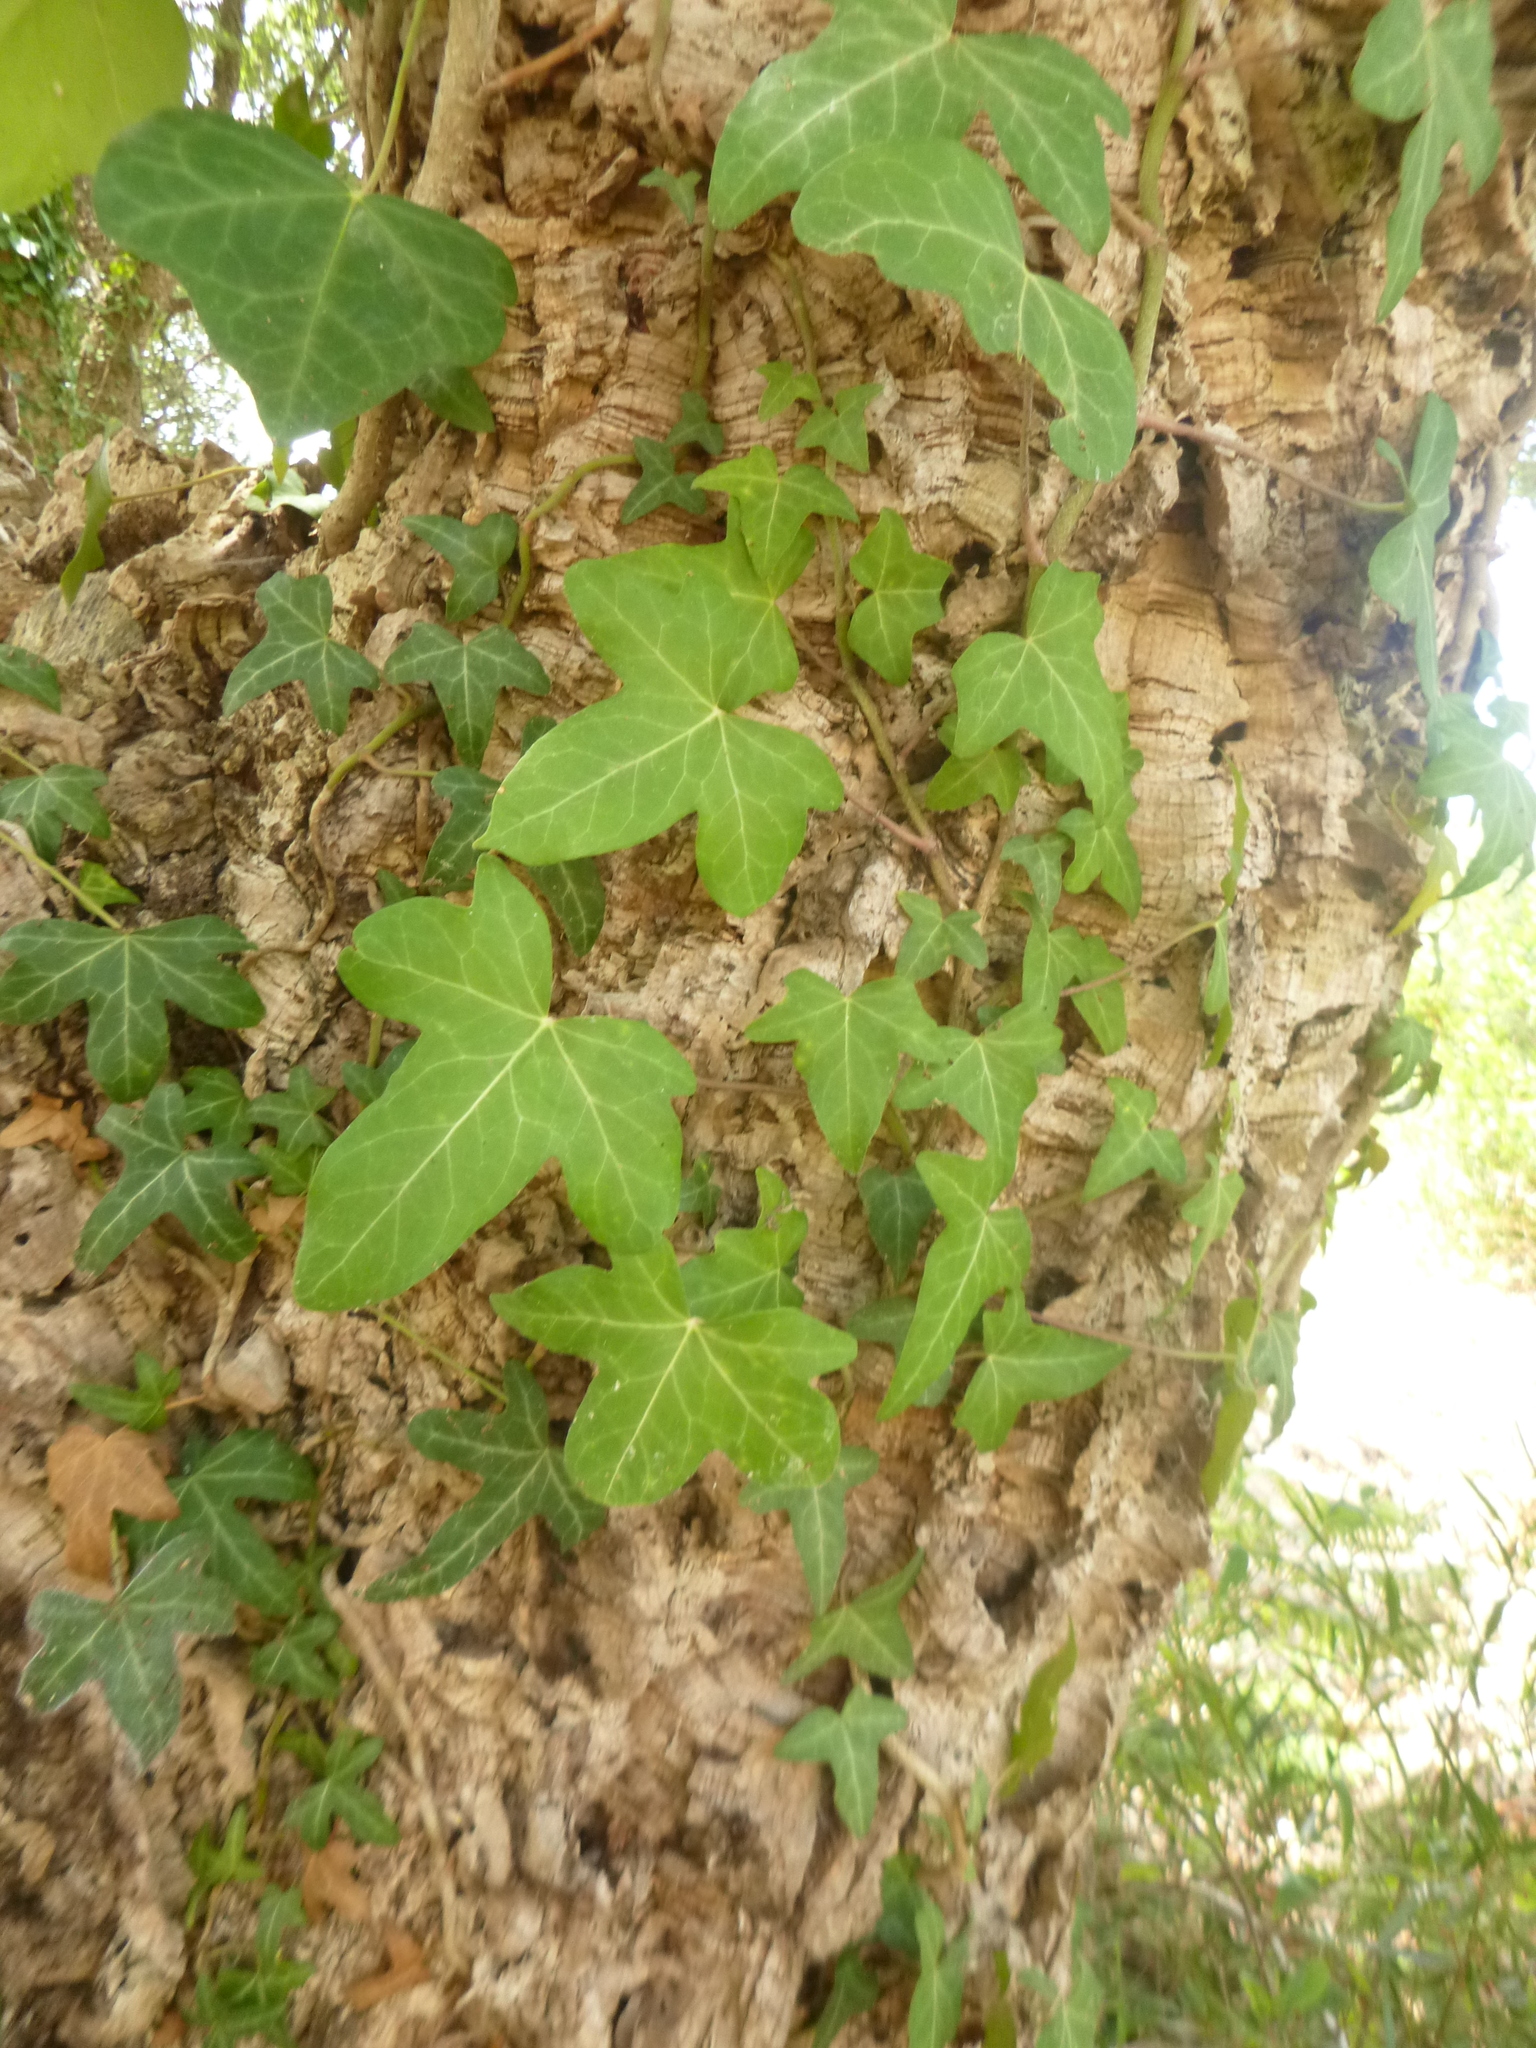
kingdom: Plantae
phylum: Tracheophyta
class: Magnoliopsida
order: Apiales
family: Araliaceae
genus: Hedera
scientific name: Hedera helix
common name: Ivy
